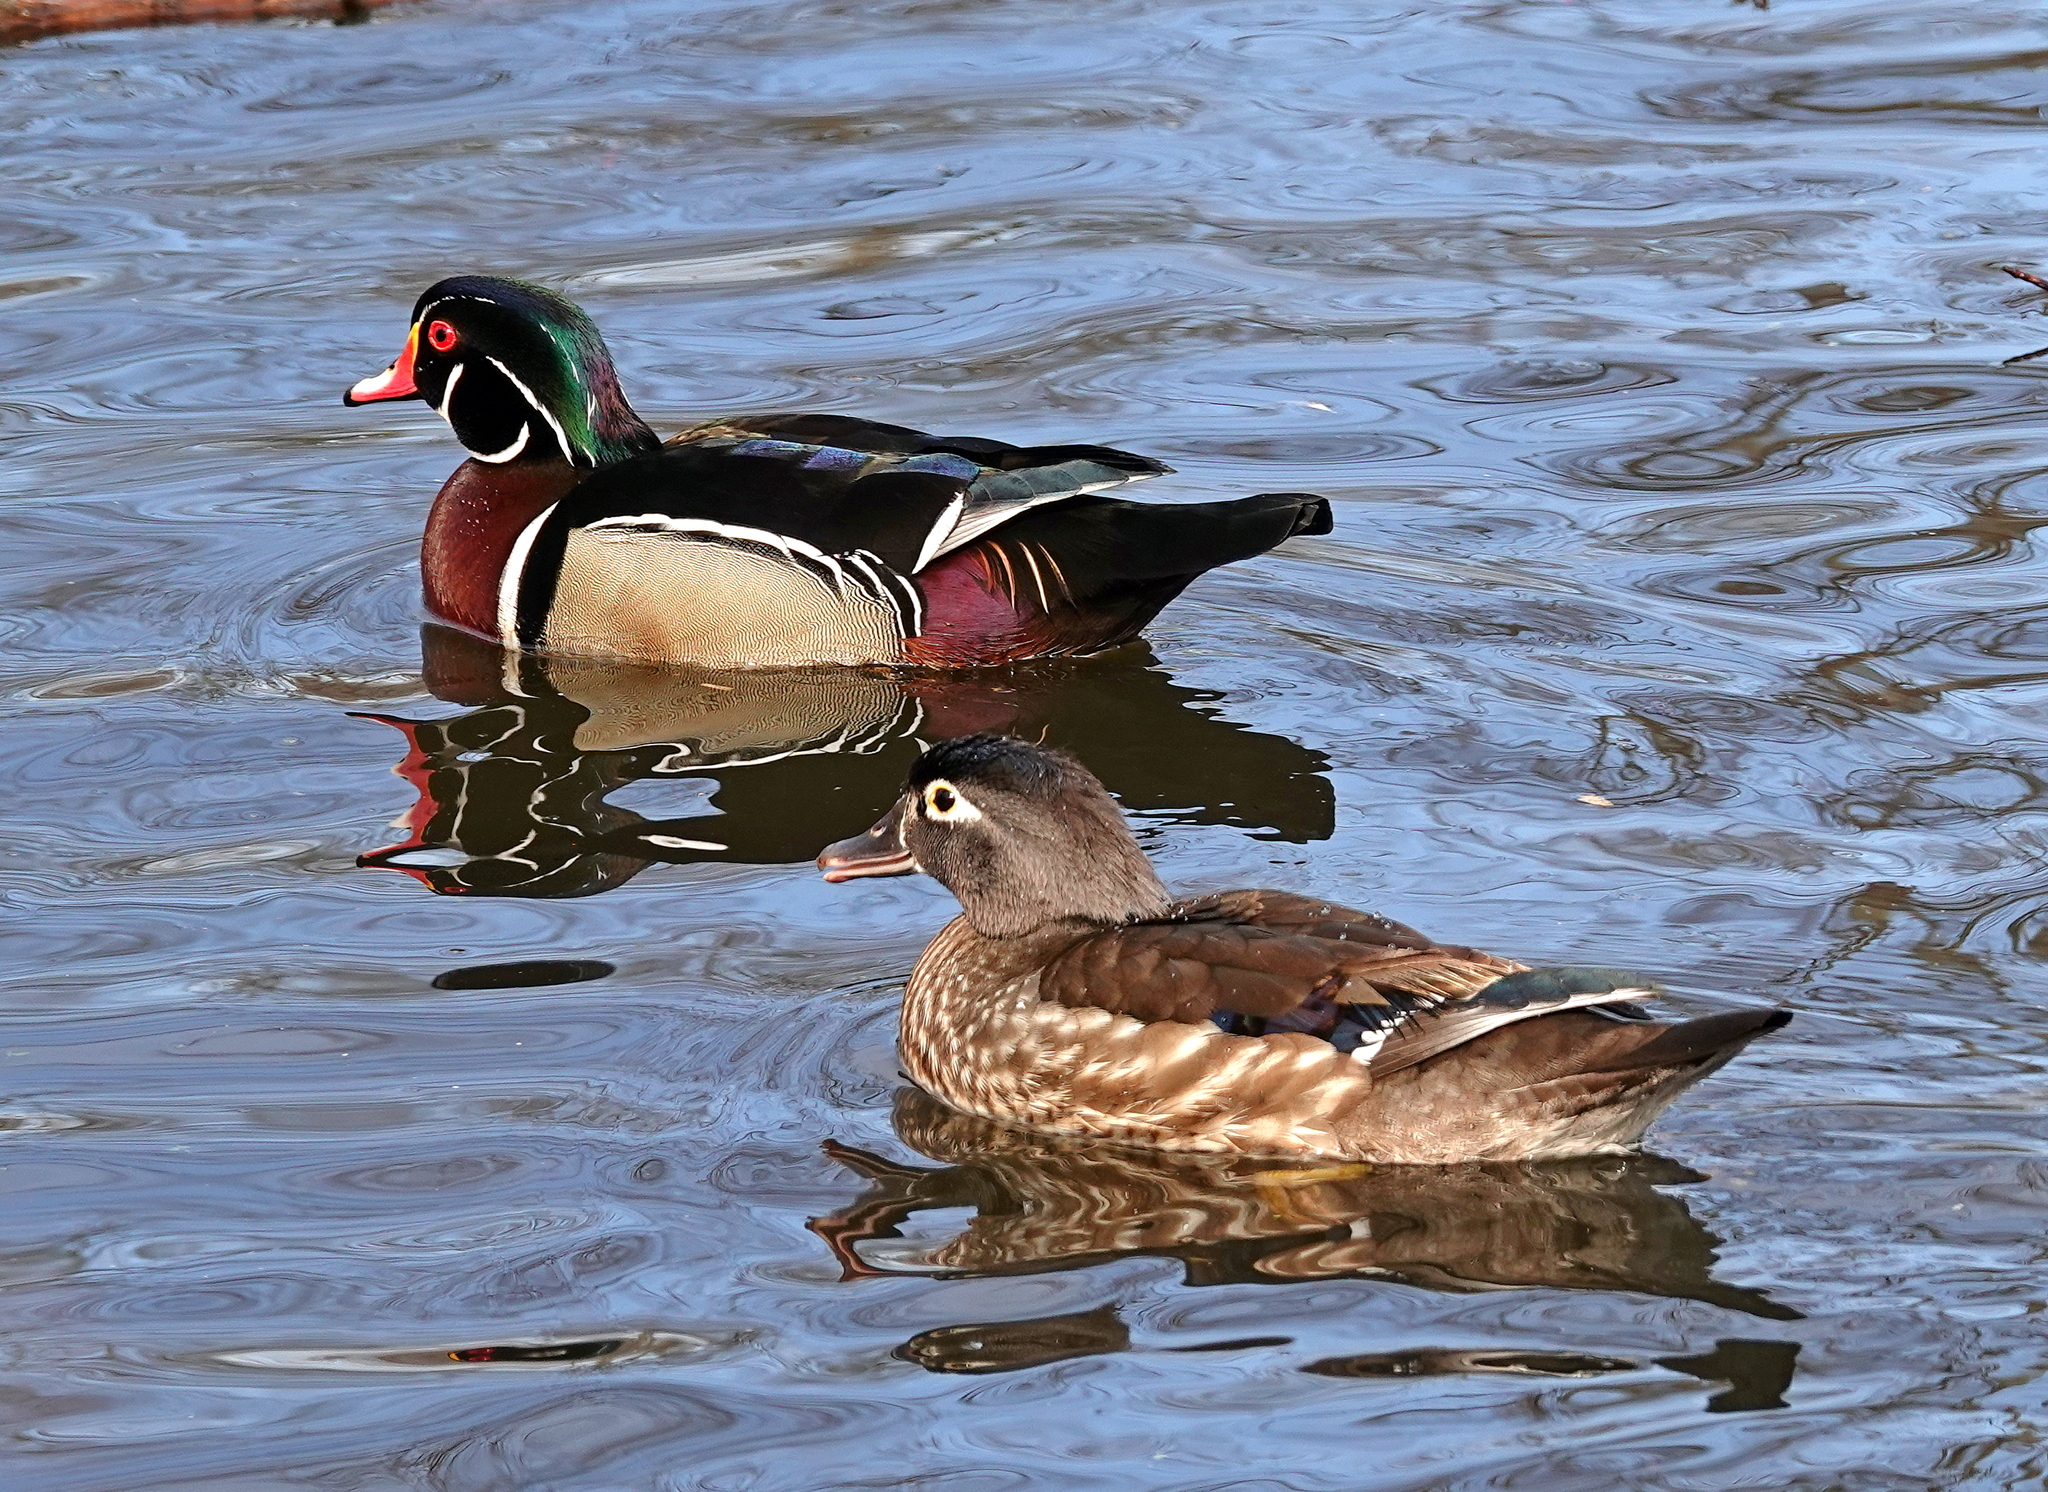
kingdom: Animalia
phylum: Chordata
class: Aves
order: Anseriformes
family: Anatidae
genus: Aix
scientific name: Aix sponsa
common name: Wood duck
